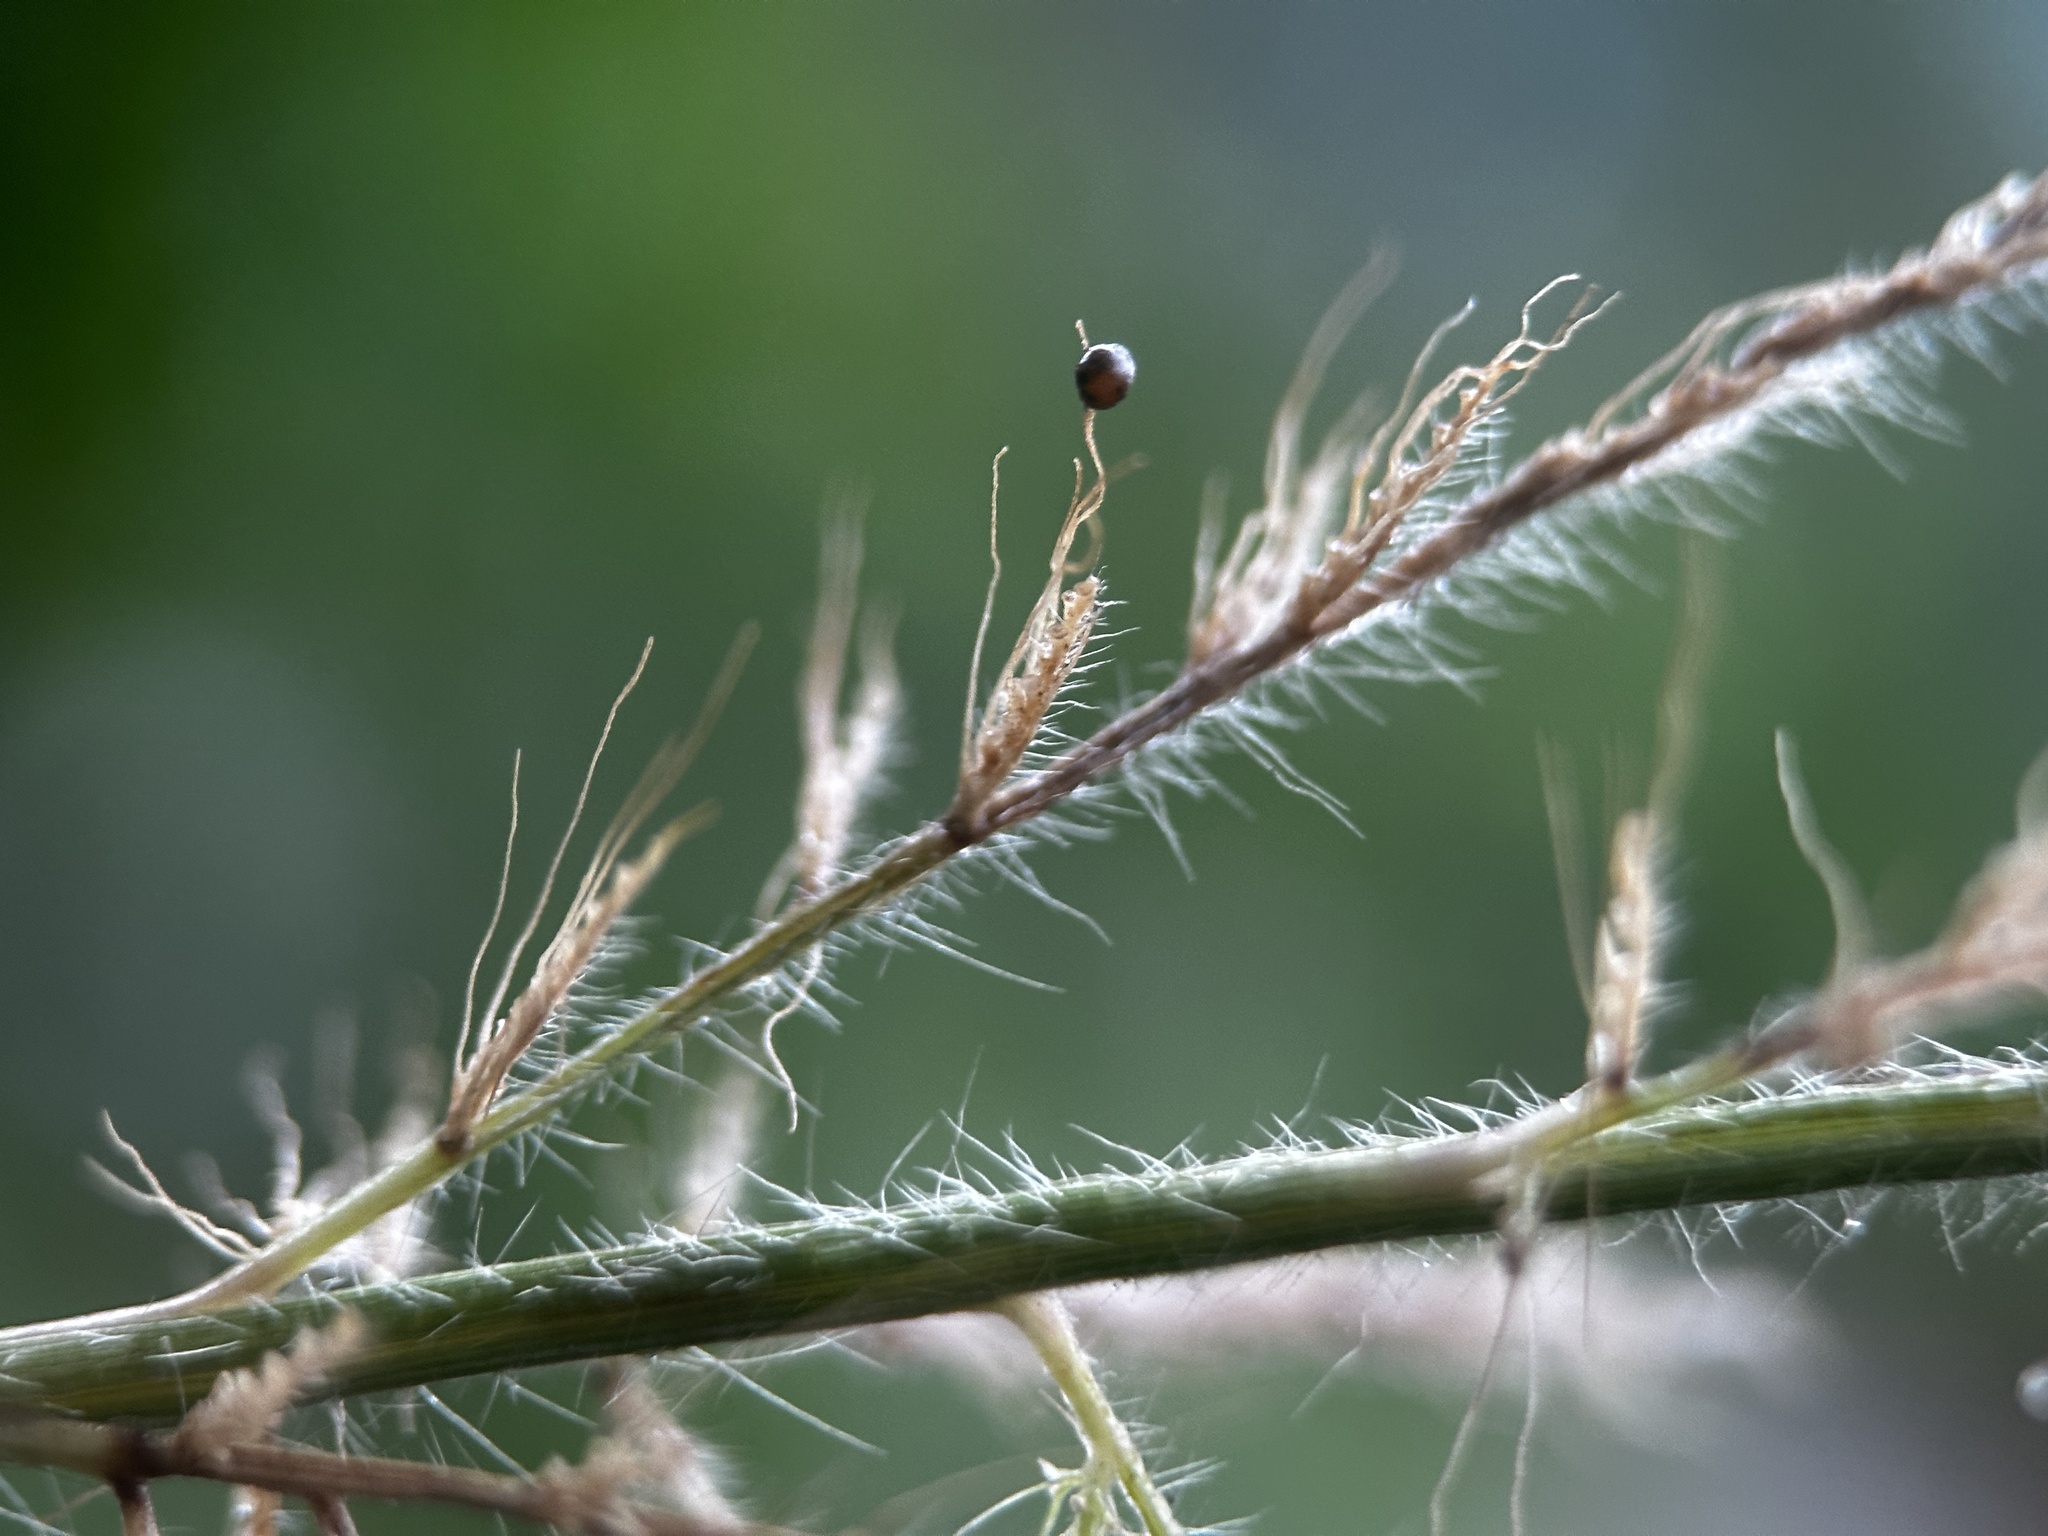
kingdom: Plantae
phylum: Tracheophyta
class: Liliopsida
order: Poales
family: Poaceae
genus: Setaria
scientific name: Setaria barbata
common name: East indian bristlegrass
